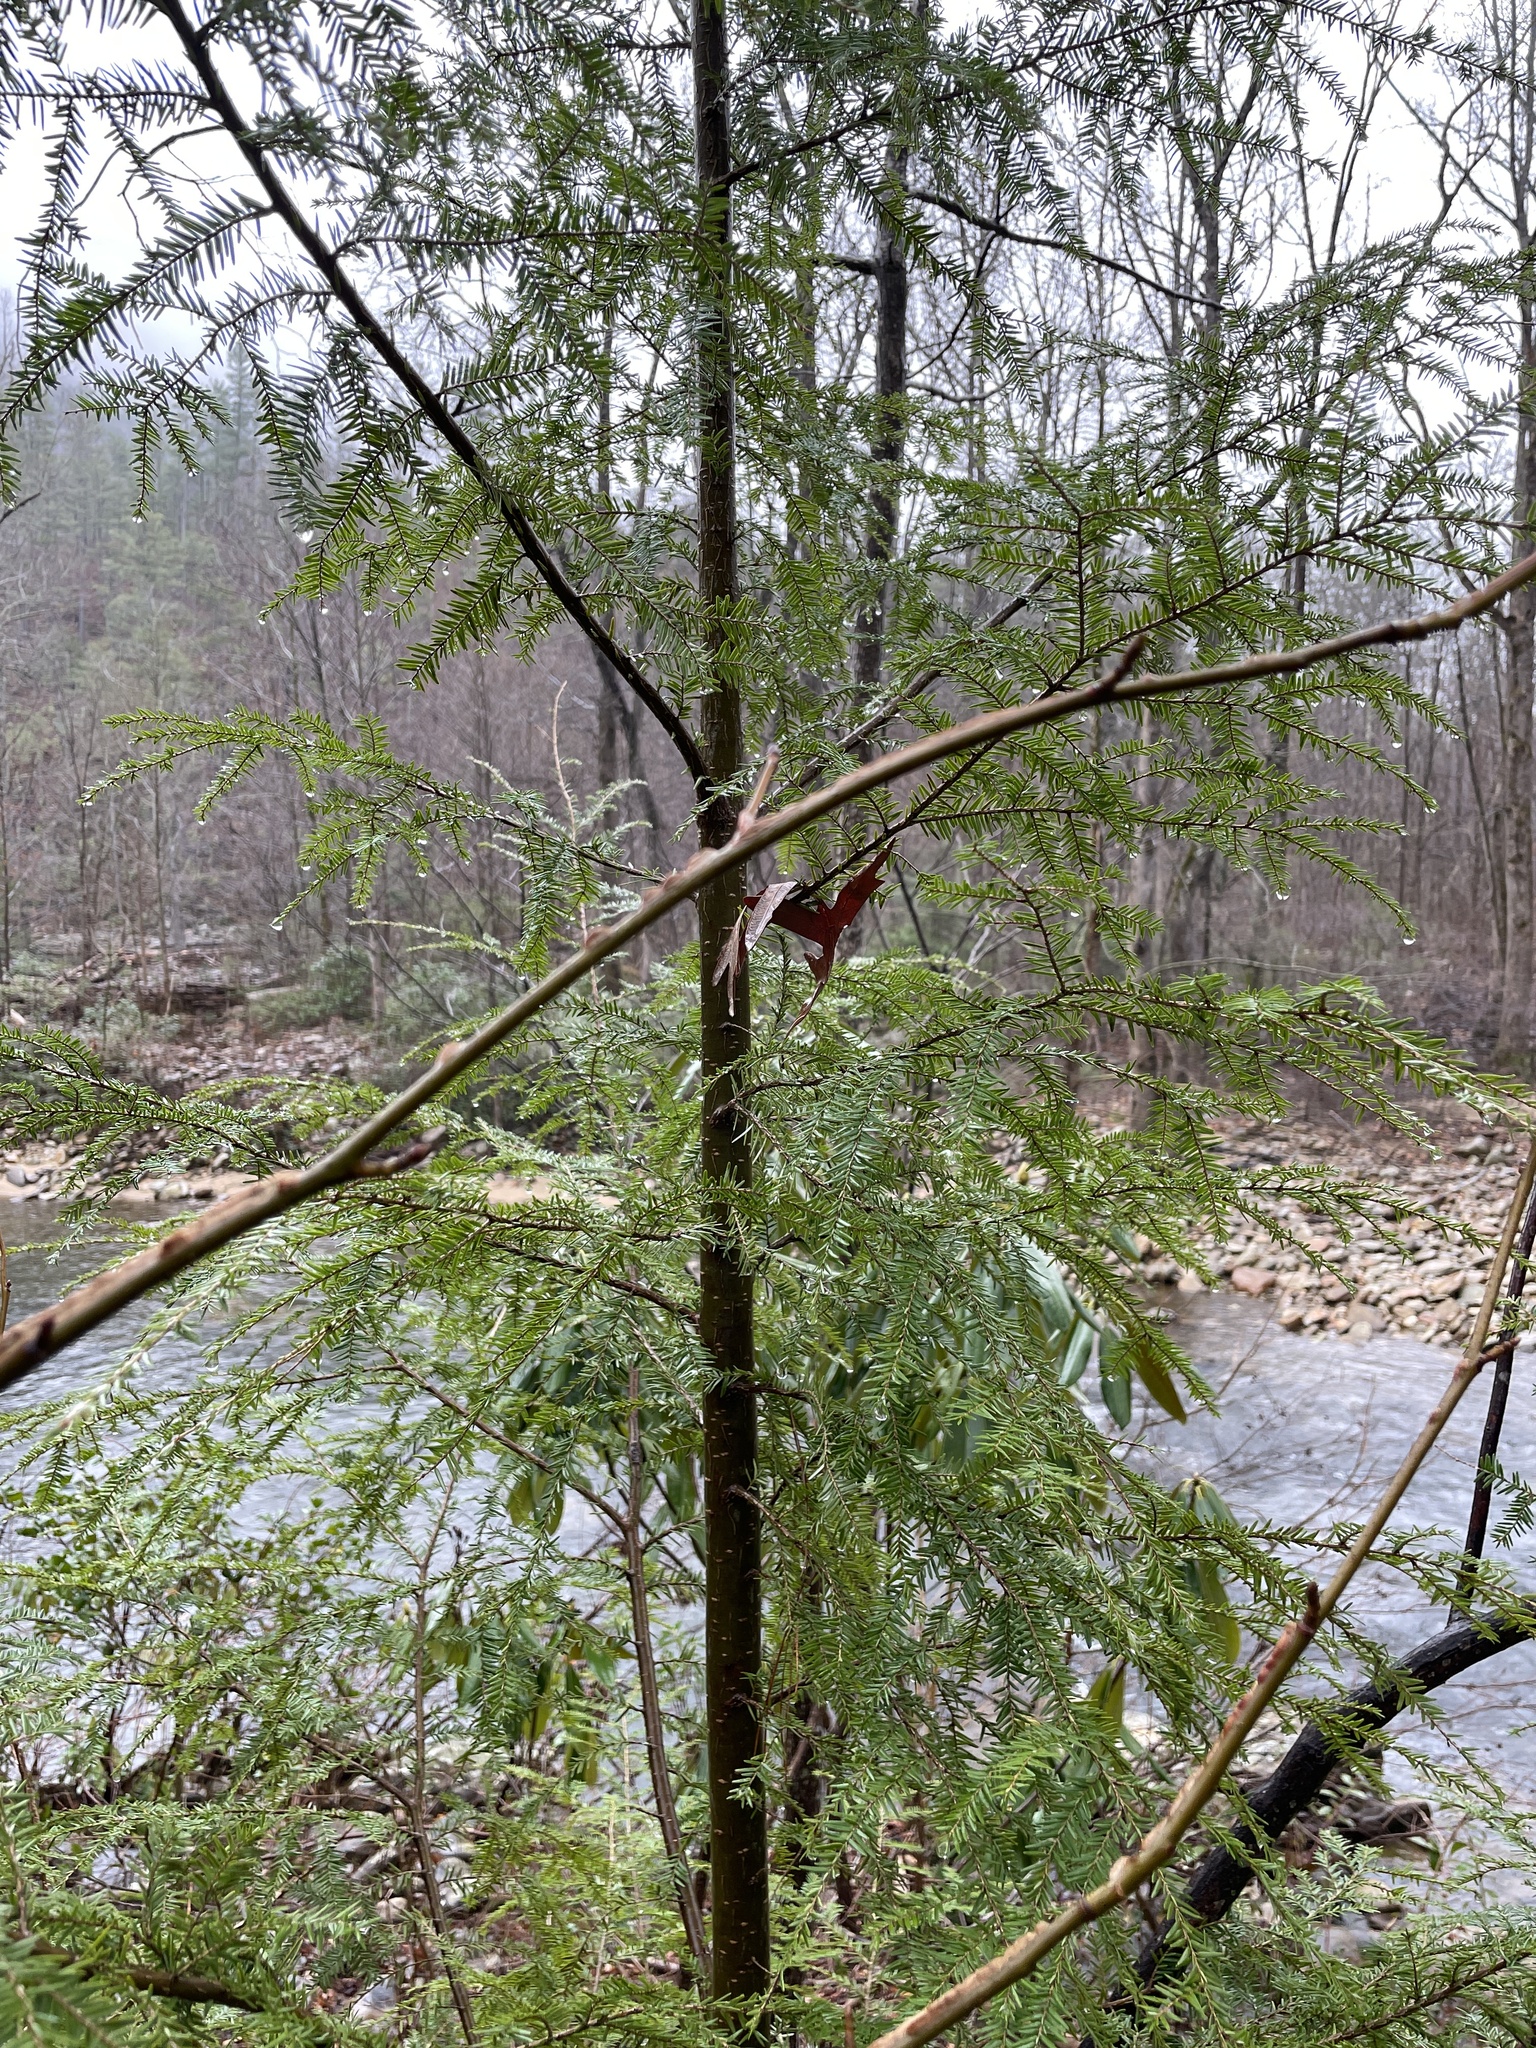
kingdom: Plantae
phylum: Tracheophyta
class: Pinopsida
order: Pinales
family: Pinaceae
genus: Tsuga
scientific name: Tsuga canadensis
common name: Eastern hemlock
